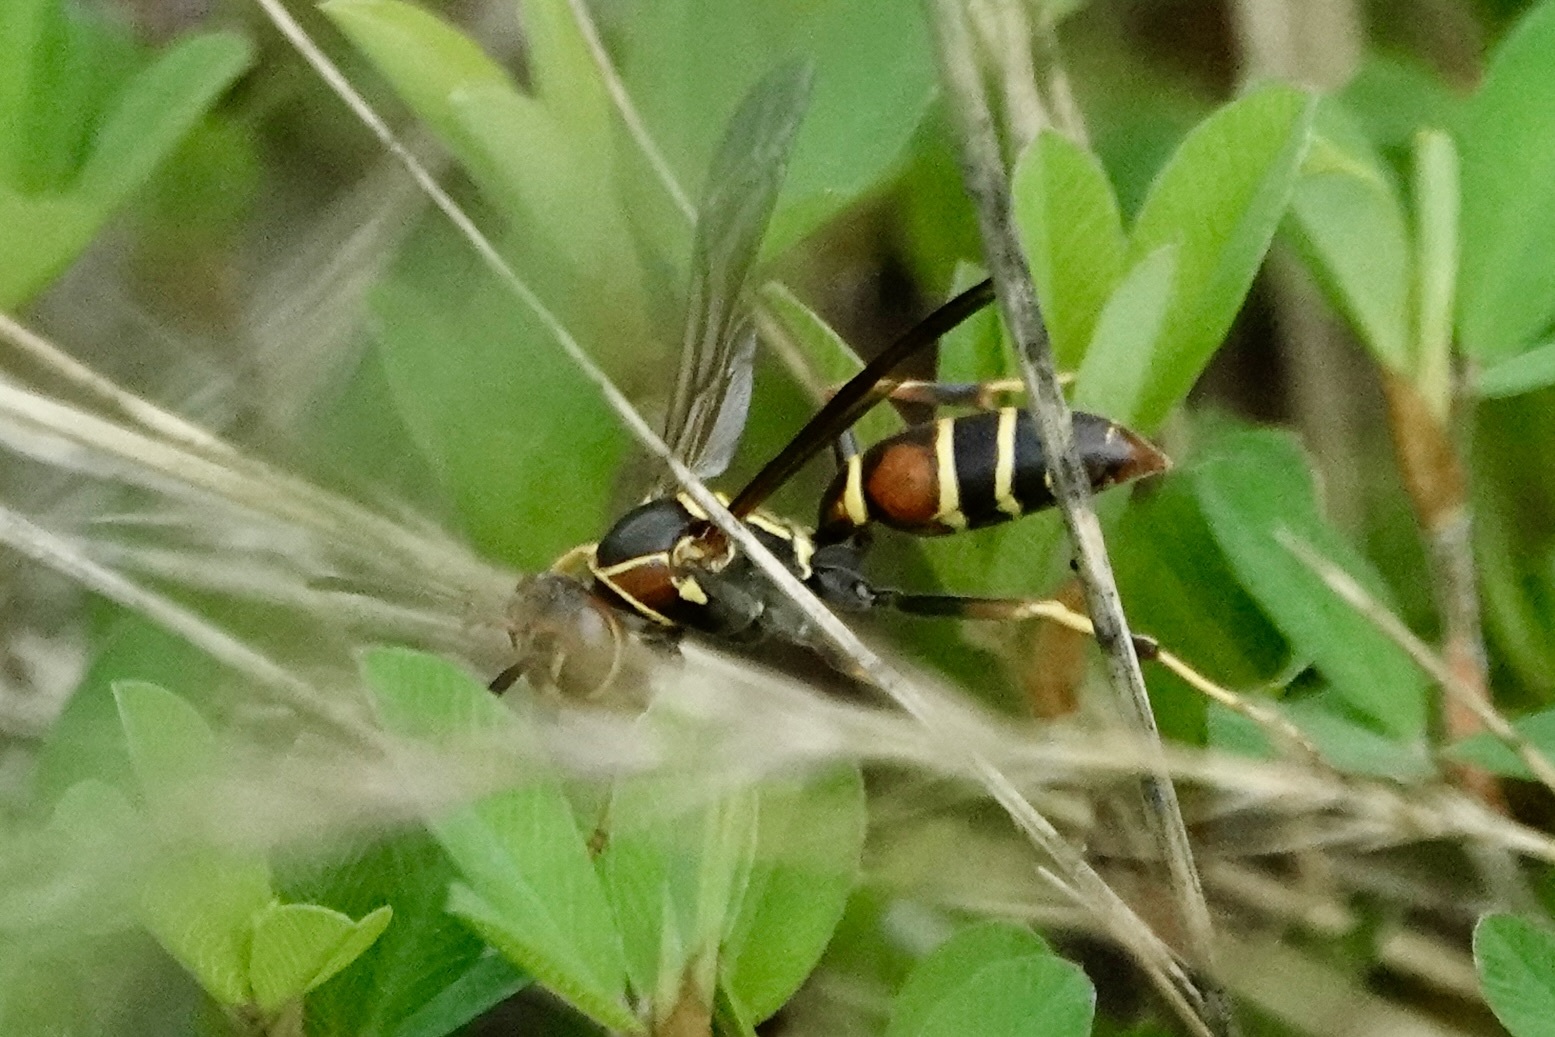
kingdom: Animalia
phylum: Arthropoda
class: Insecta
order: Hymenoptera
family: Eumenidae
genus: Polistes
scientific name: Polistes dorsalis
